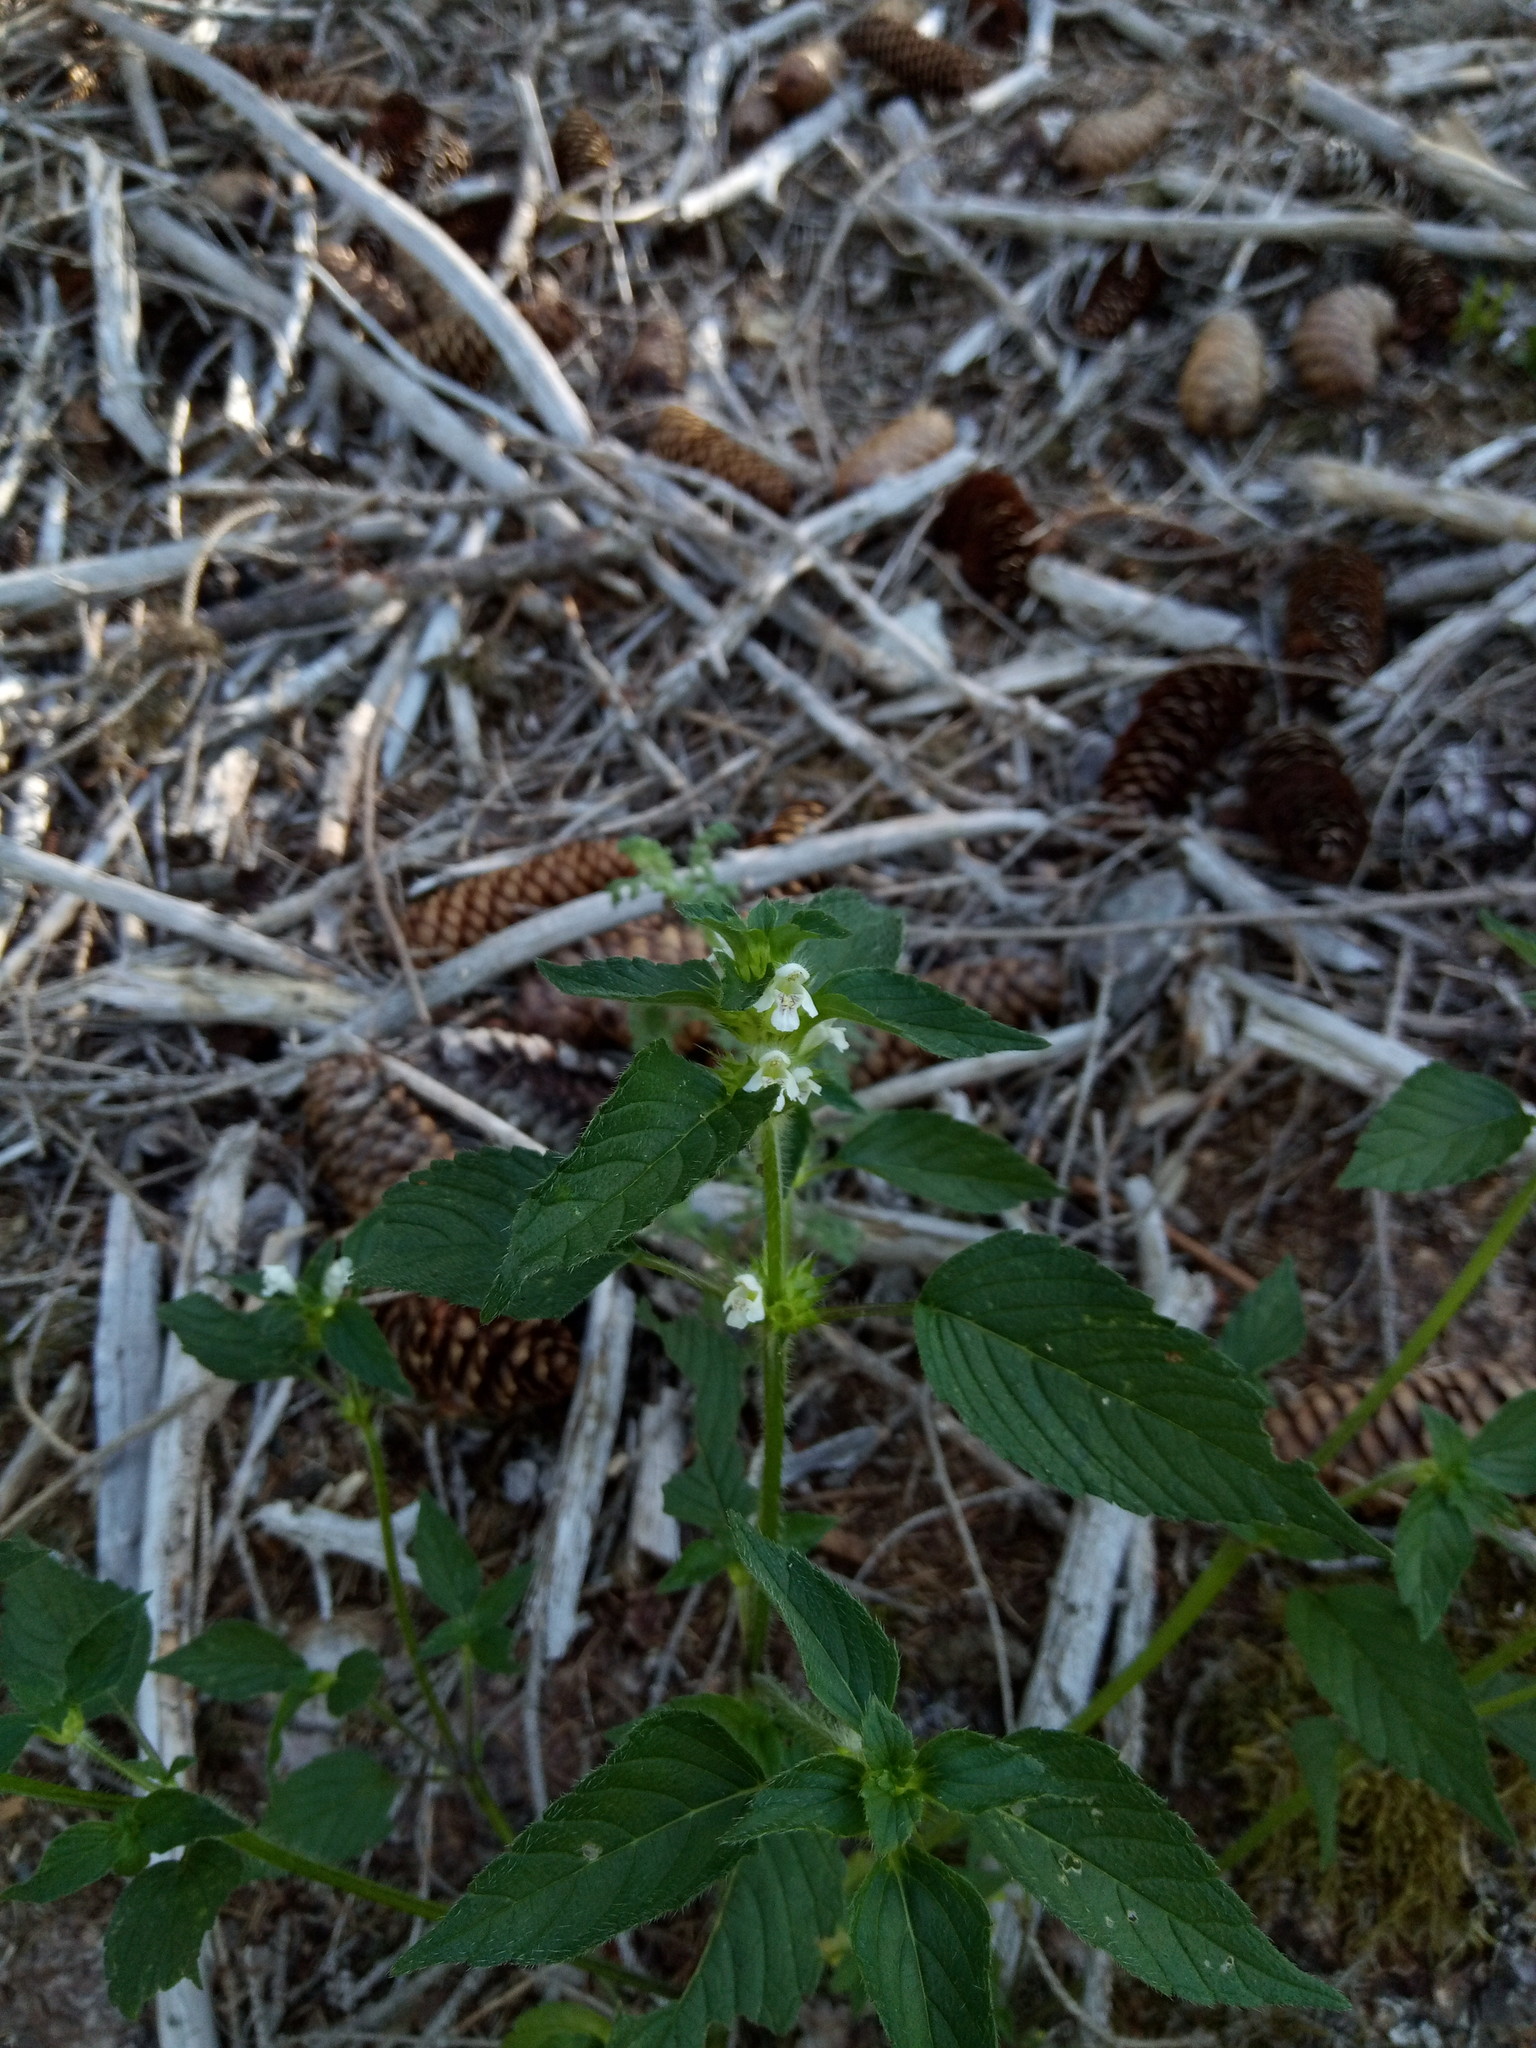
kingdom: Plantae
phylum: Tracheophyta
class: Magnoliopsida
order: Lamiales
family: Lamiaceae
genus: Galeopsis
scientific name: Galeopsis tetrahit
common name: Common hemp-nettle
